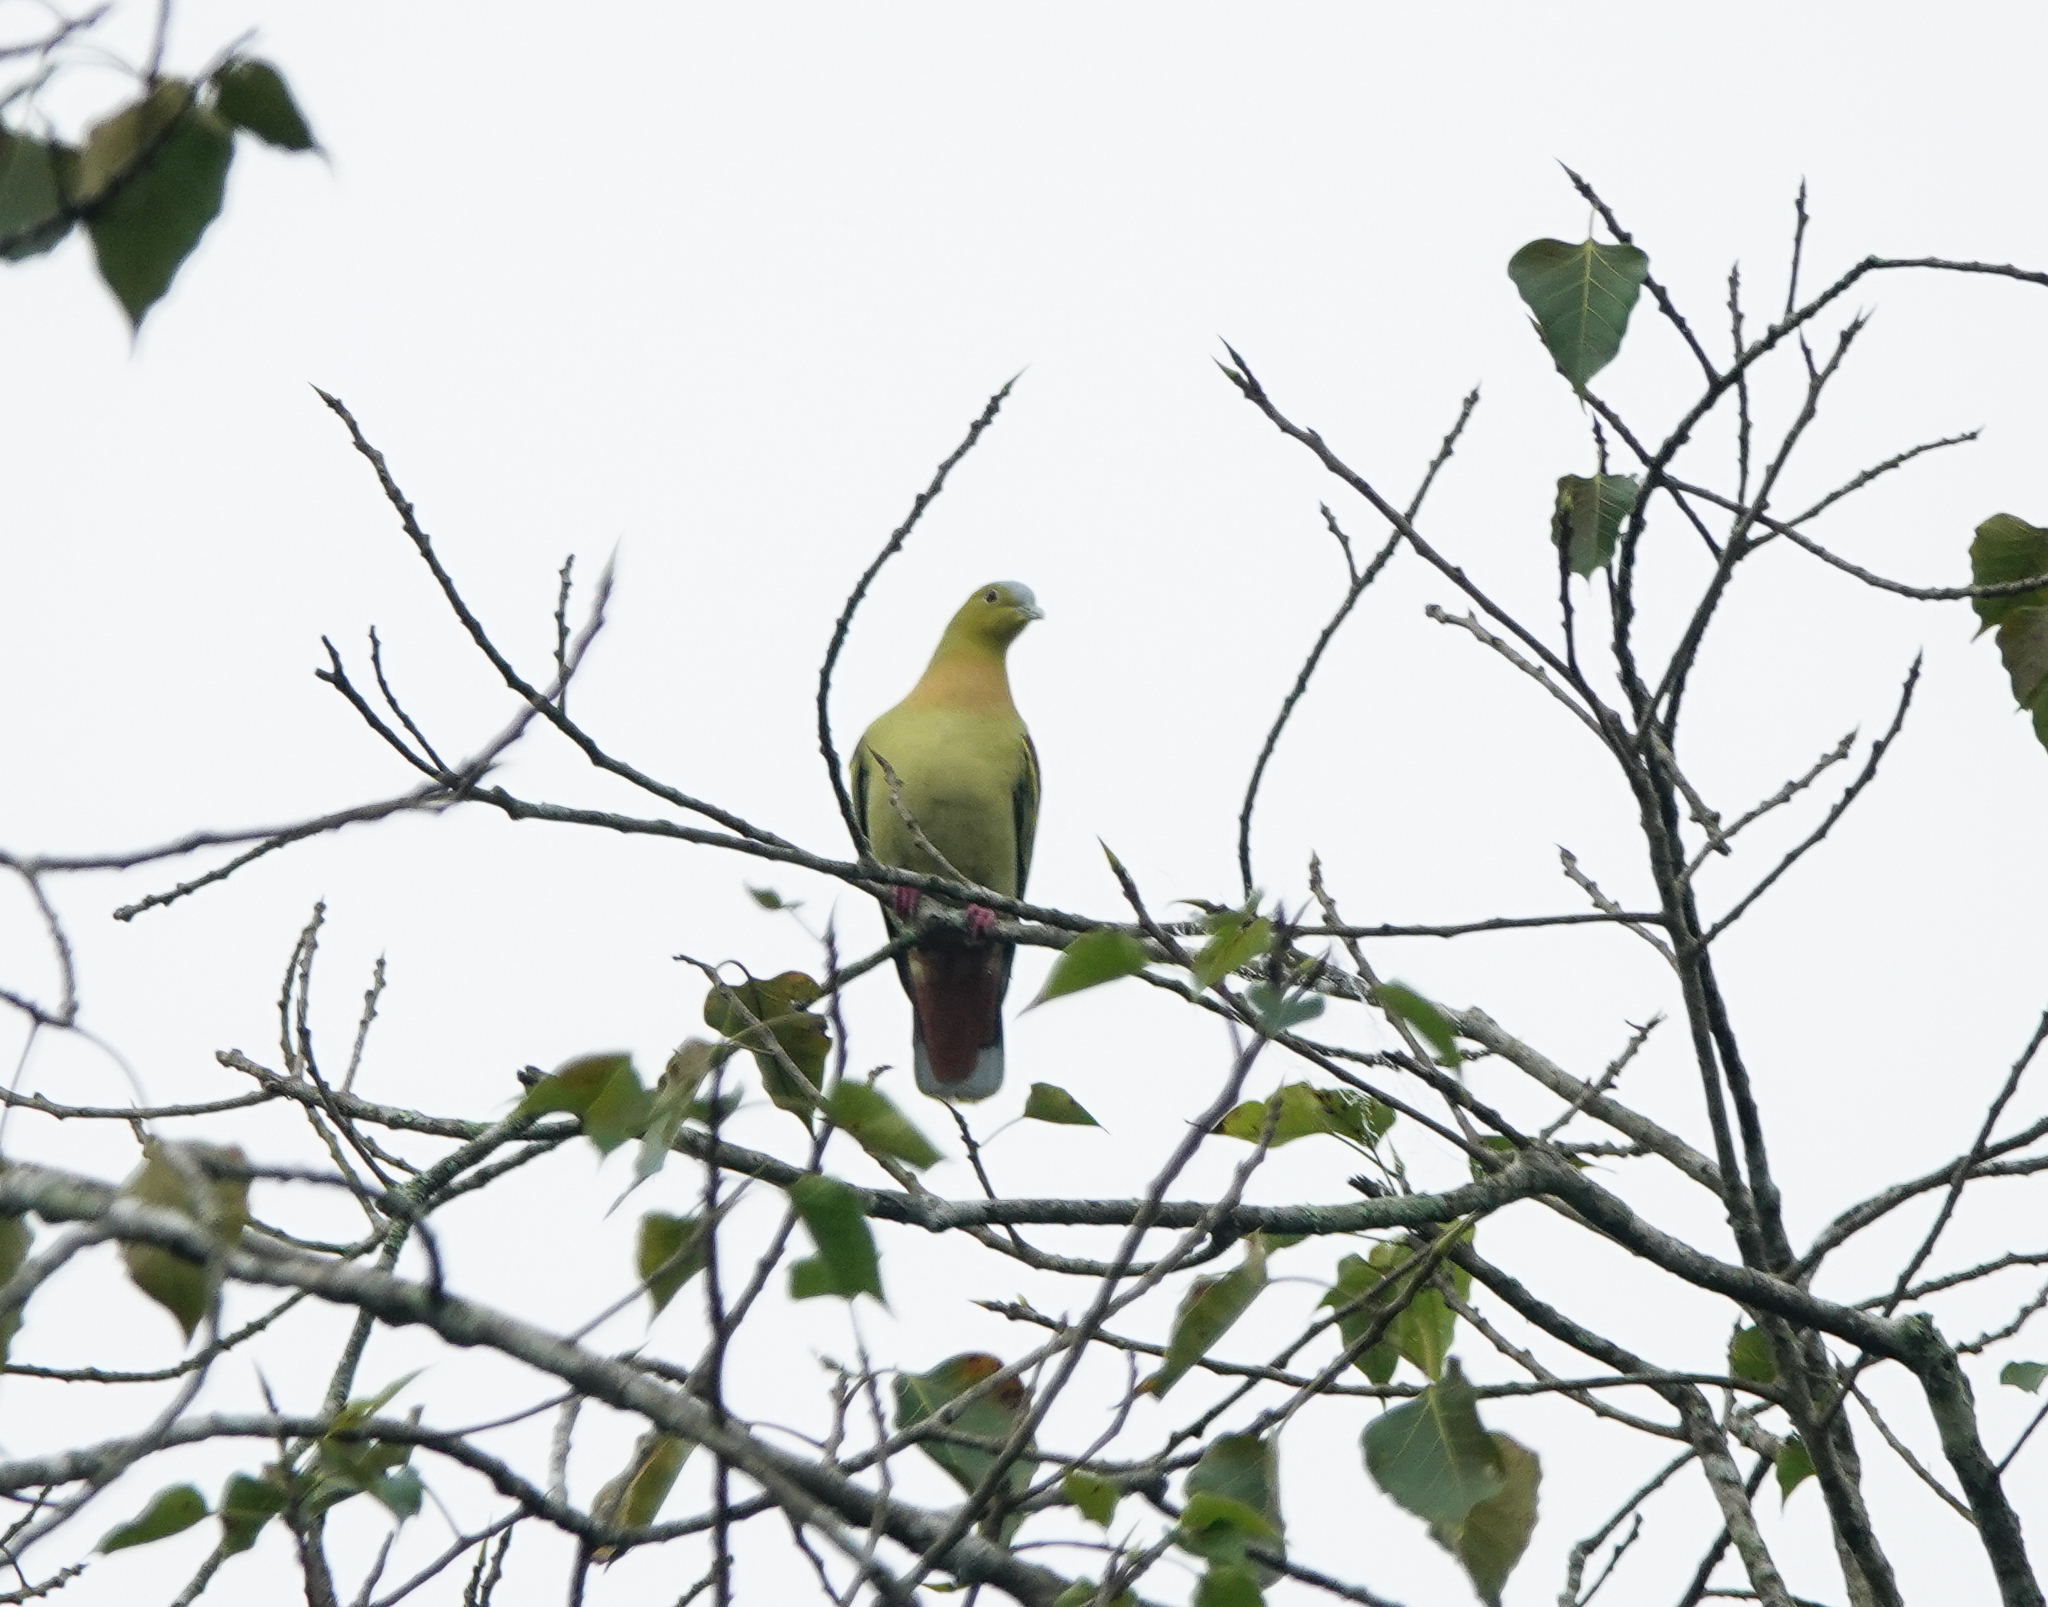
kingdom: Animalia
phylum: Chordata
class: Aves
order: Columbiformes
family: Columbidae
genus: Treron
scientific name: Treron phayrei
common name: Ashy-headed green pigeon
